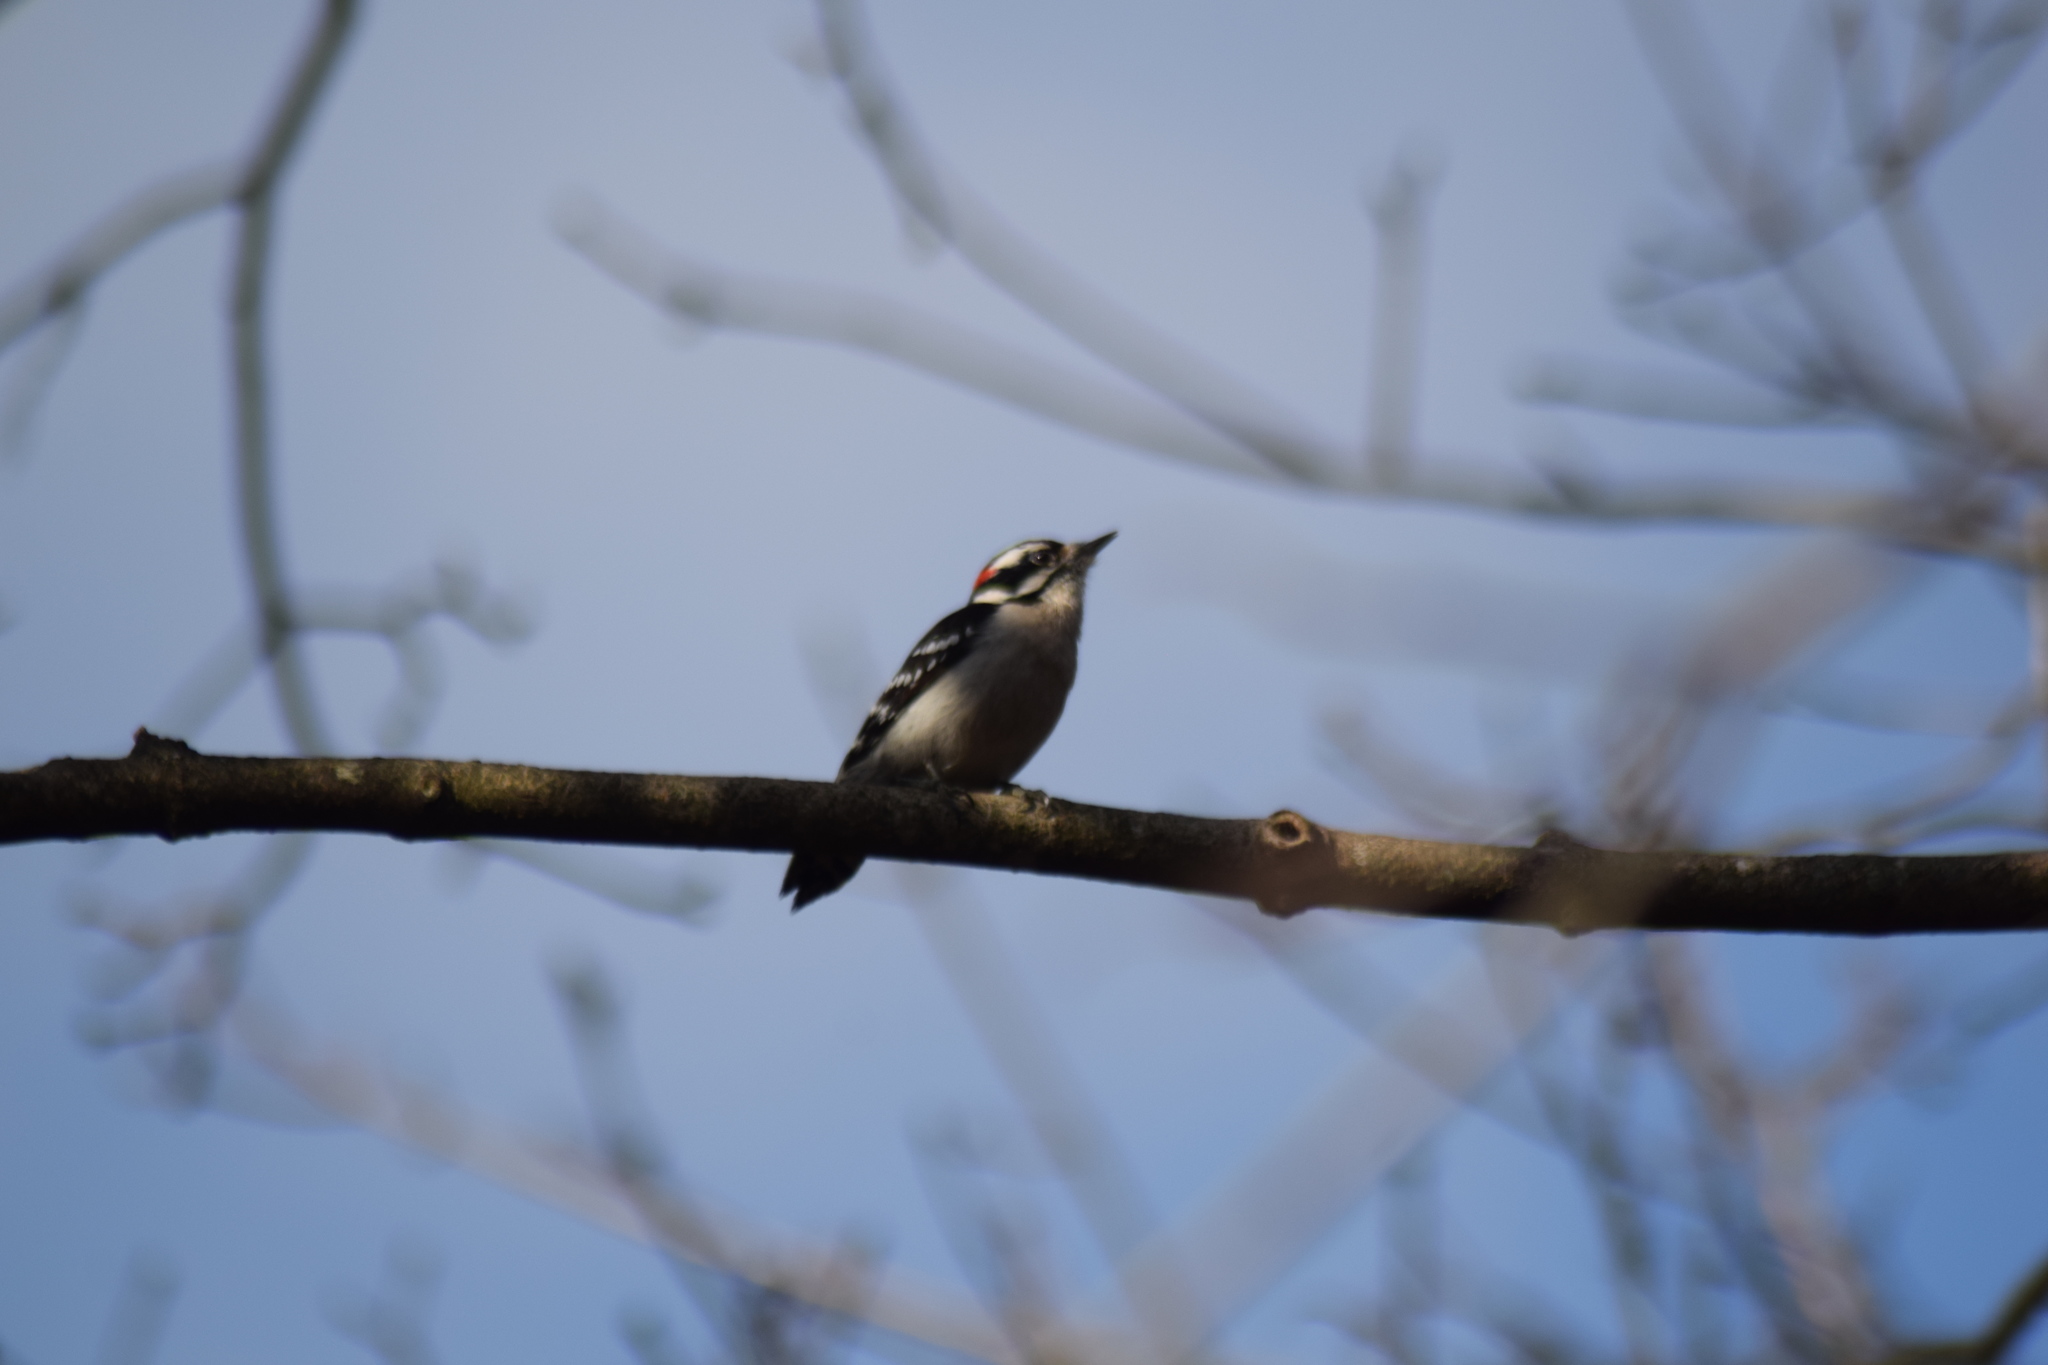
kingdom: Animalia
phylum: Chordata
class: Aves
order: Piciformes
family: Picidae
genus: Dryobates
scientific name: Dryobates pubescens
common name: Downy woodpecker
